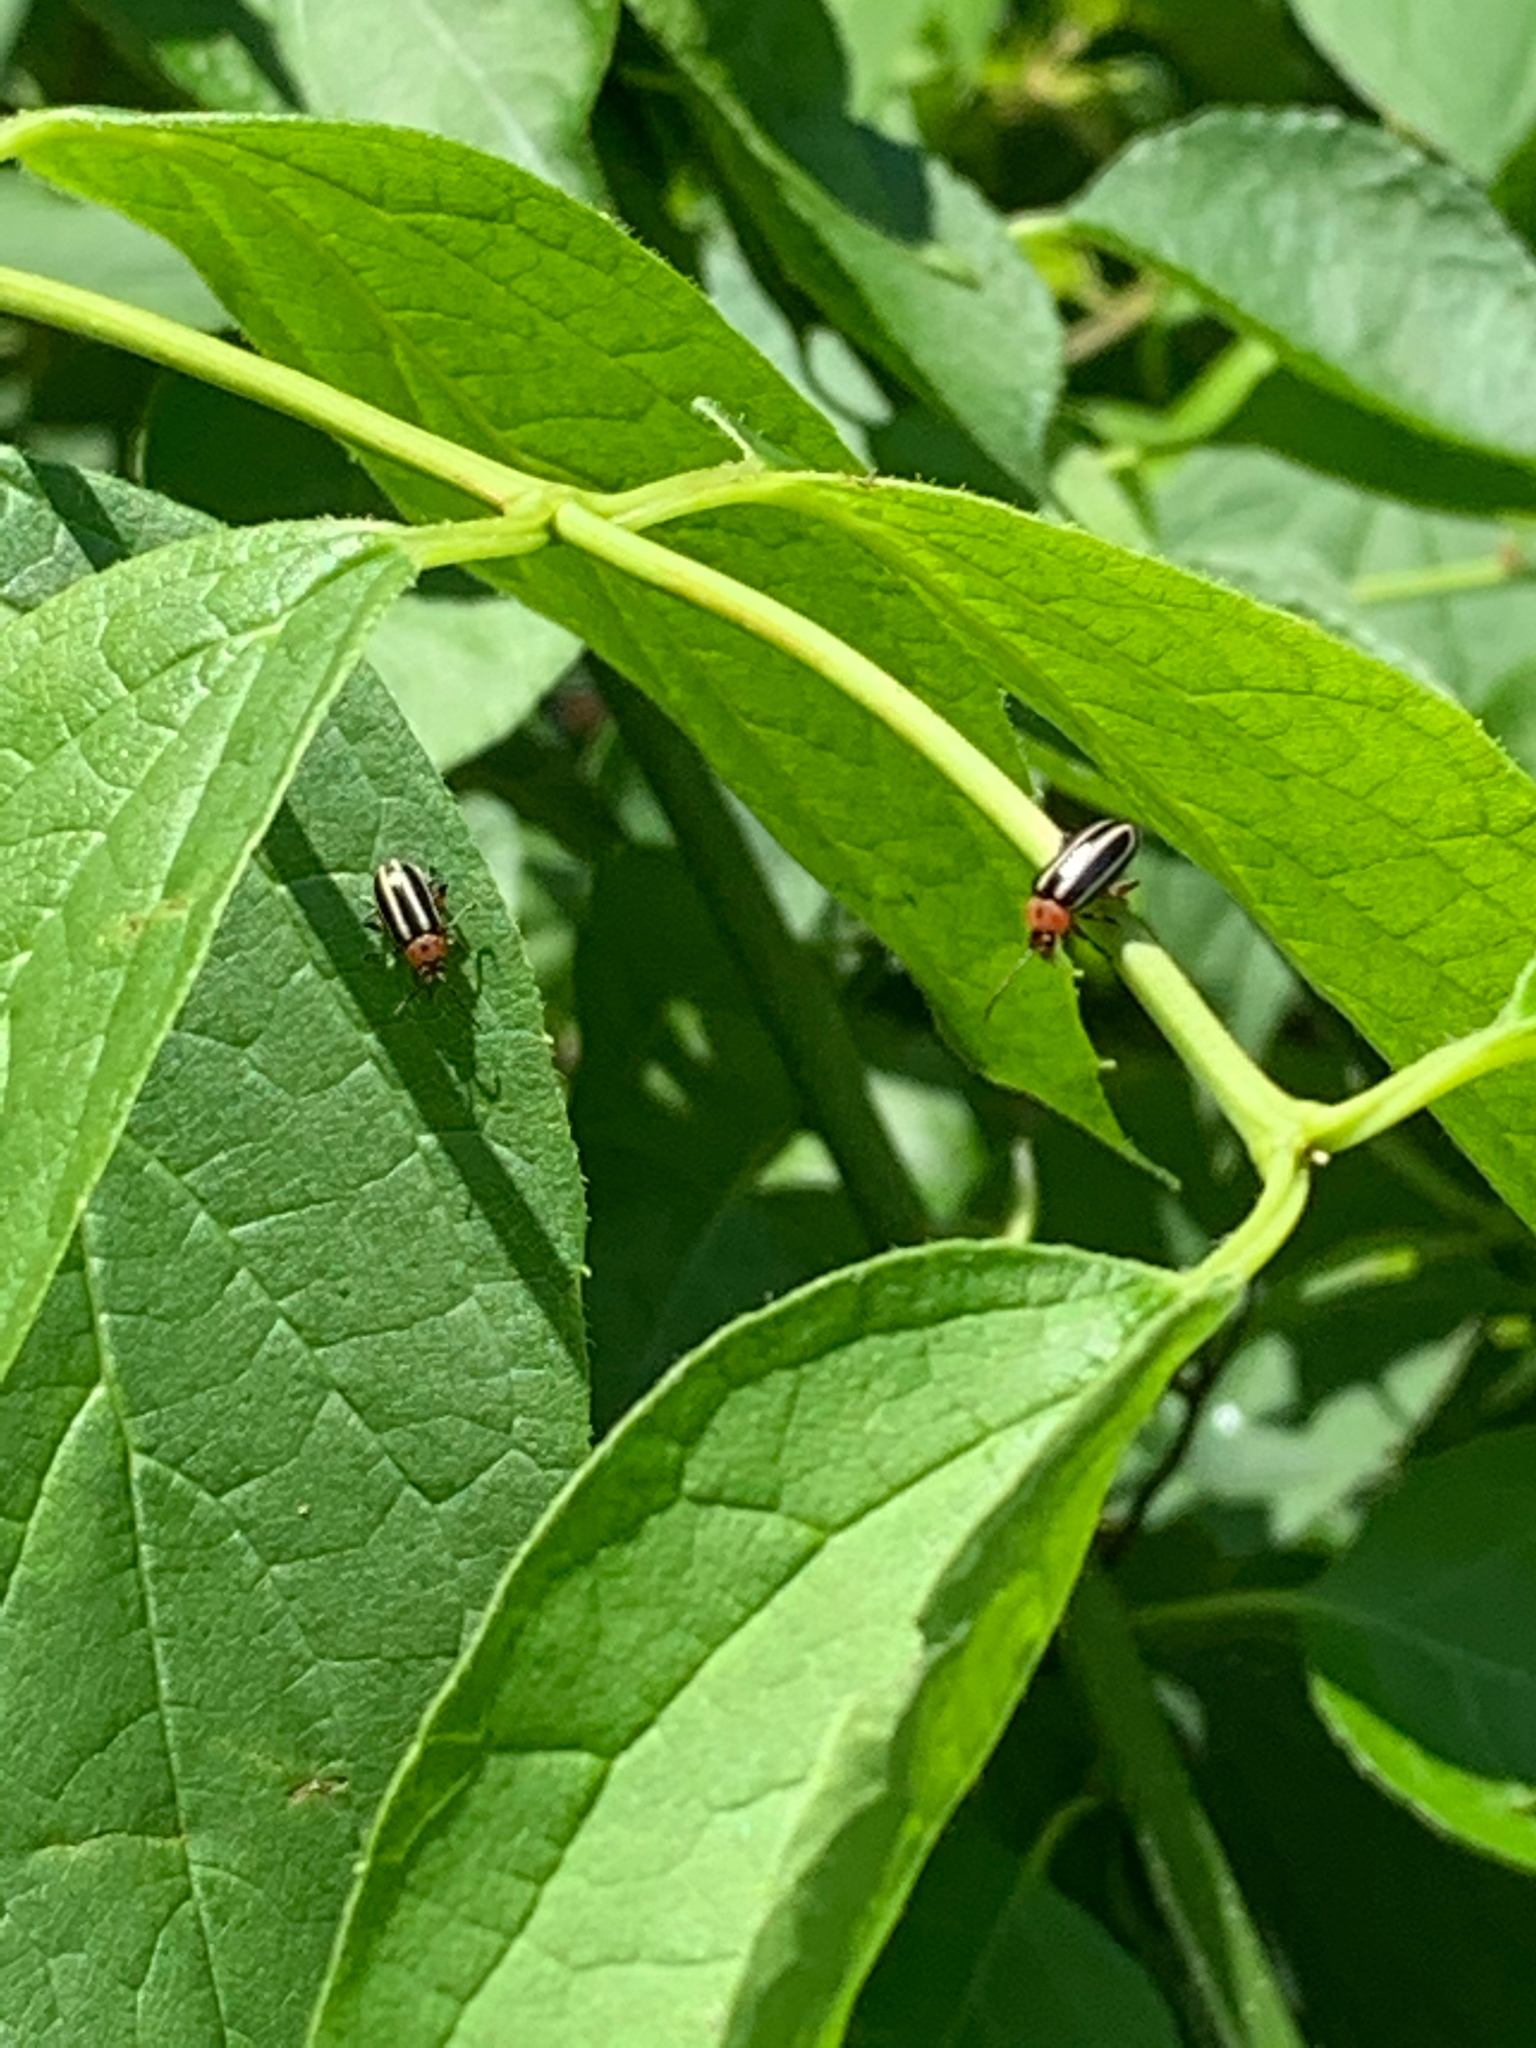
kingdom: Animalia
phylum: Arthropoda
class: Insecta
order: Coleoptera
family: Chrysomelidae
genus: Disonycha
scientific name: Disonycha glabrata
